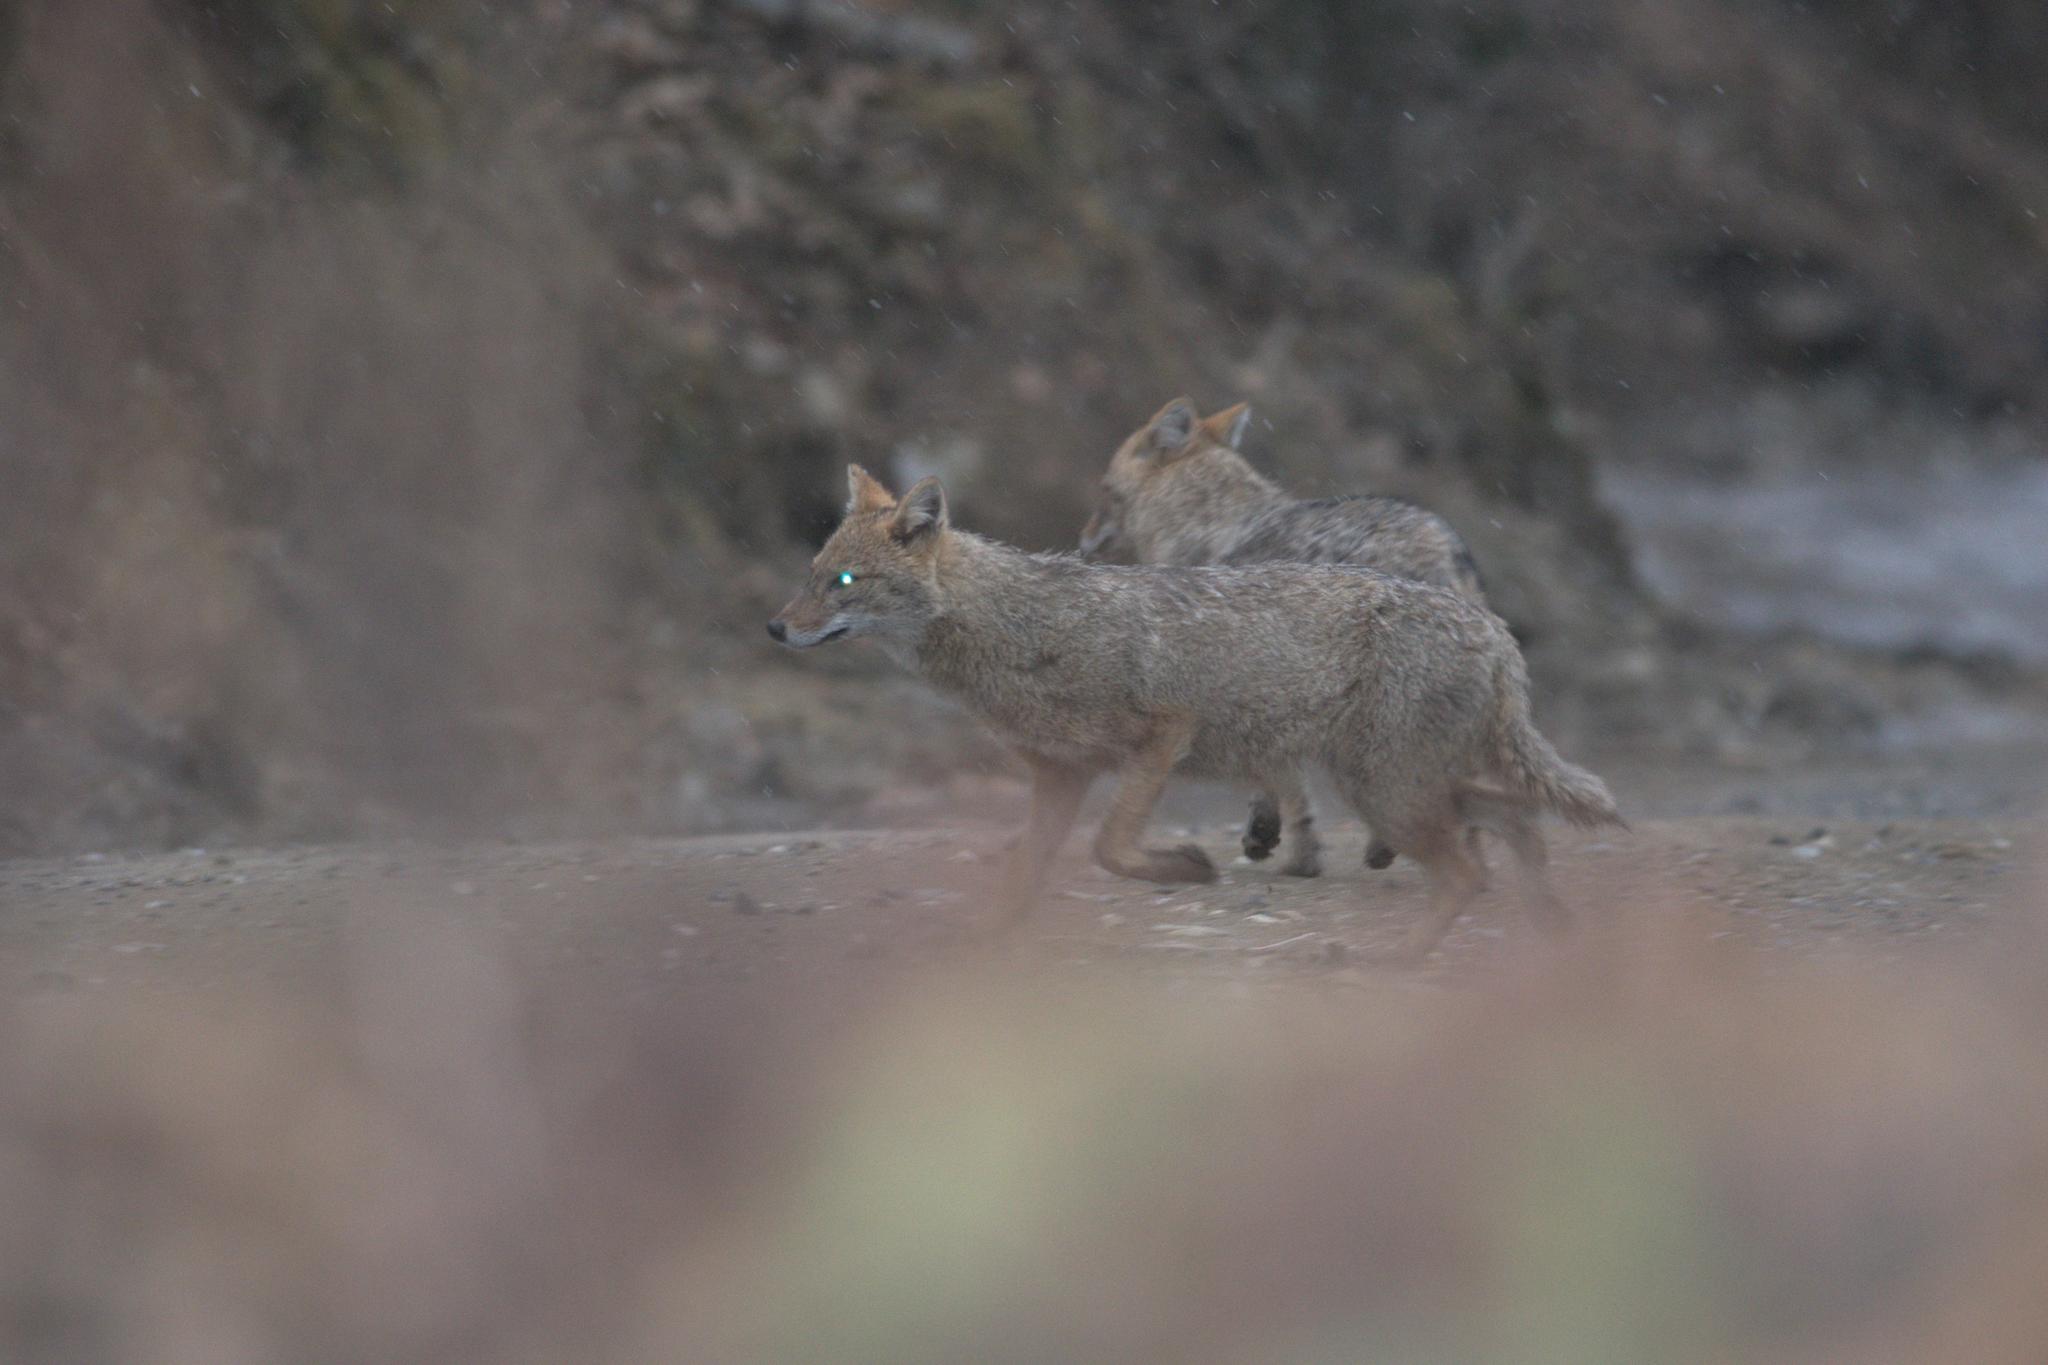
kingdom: Animalia
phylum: Chordata
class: Mammalia
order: Carnivora
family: Canidae
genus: Canis
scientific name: Canis aureus
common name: Golden jackal
